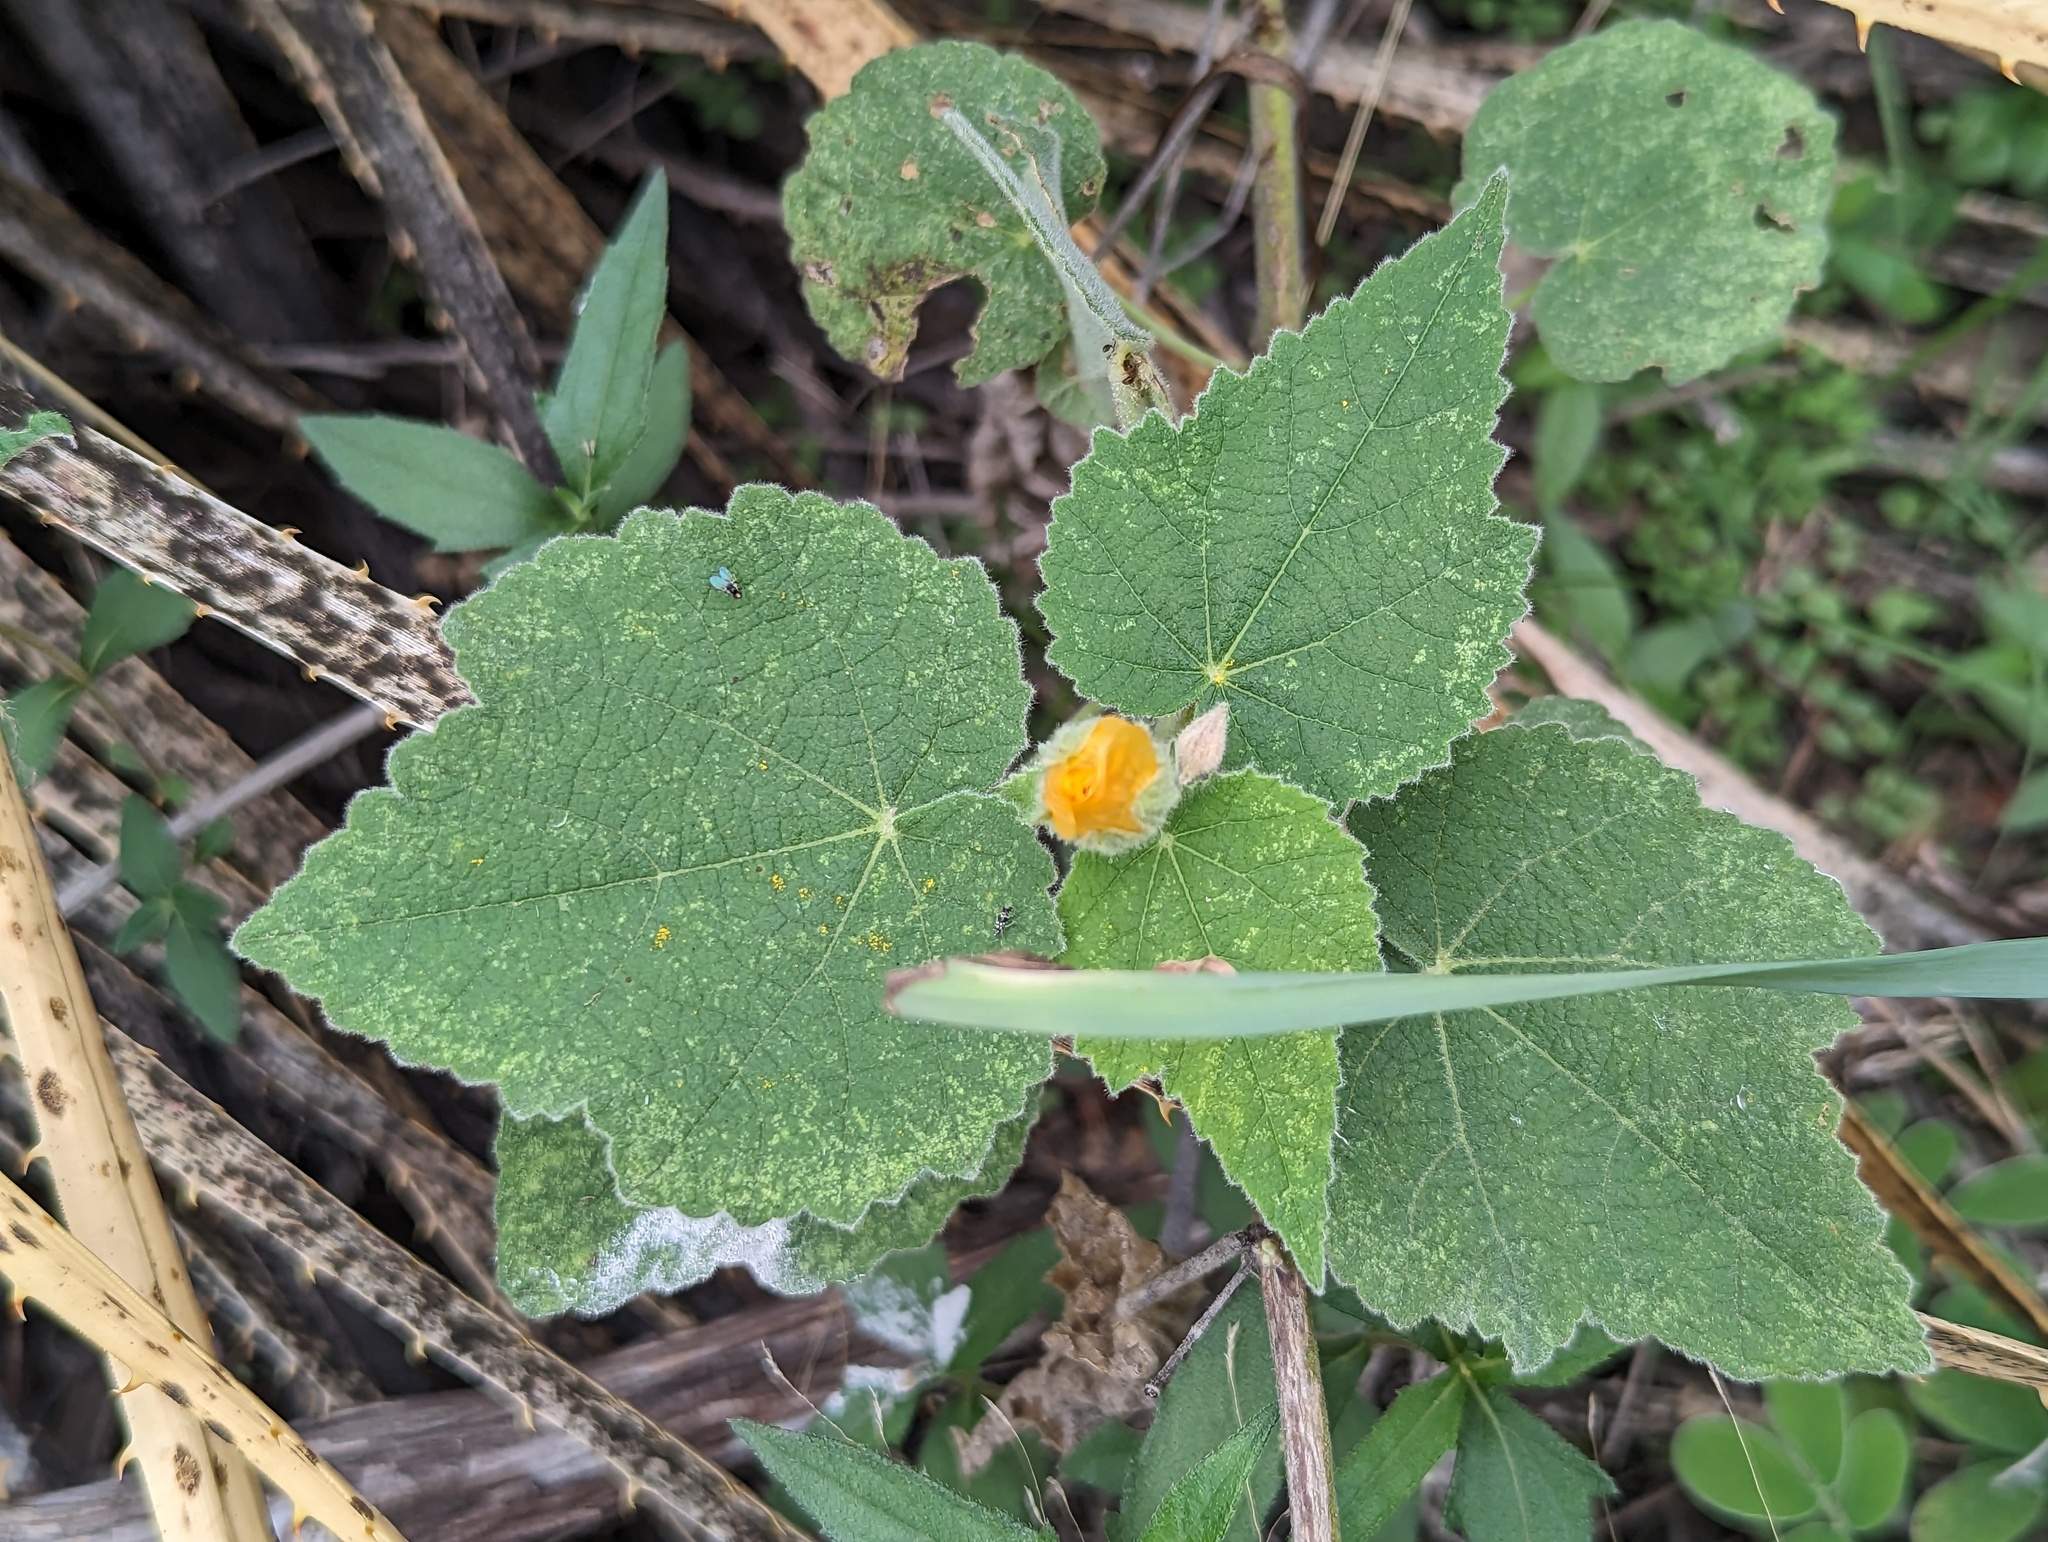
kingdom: Plantae
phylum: Tracheophyta
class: Magnoliopsida
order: Malvales
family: Malvaceae
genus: Allowissadula
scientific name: Allowissadula holosericea
